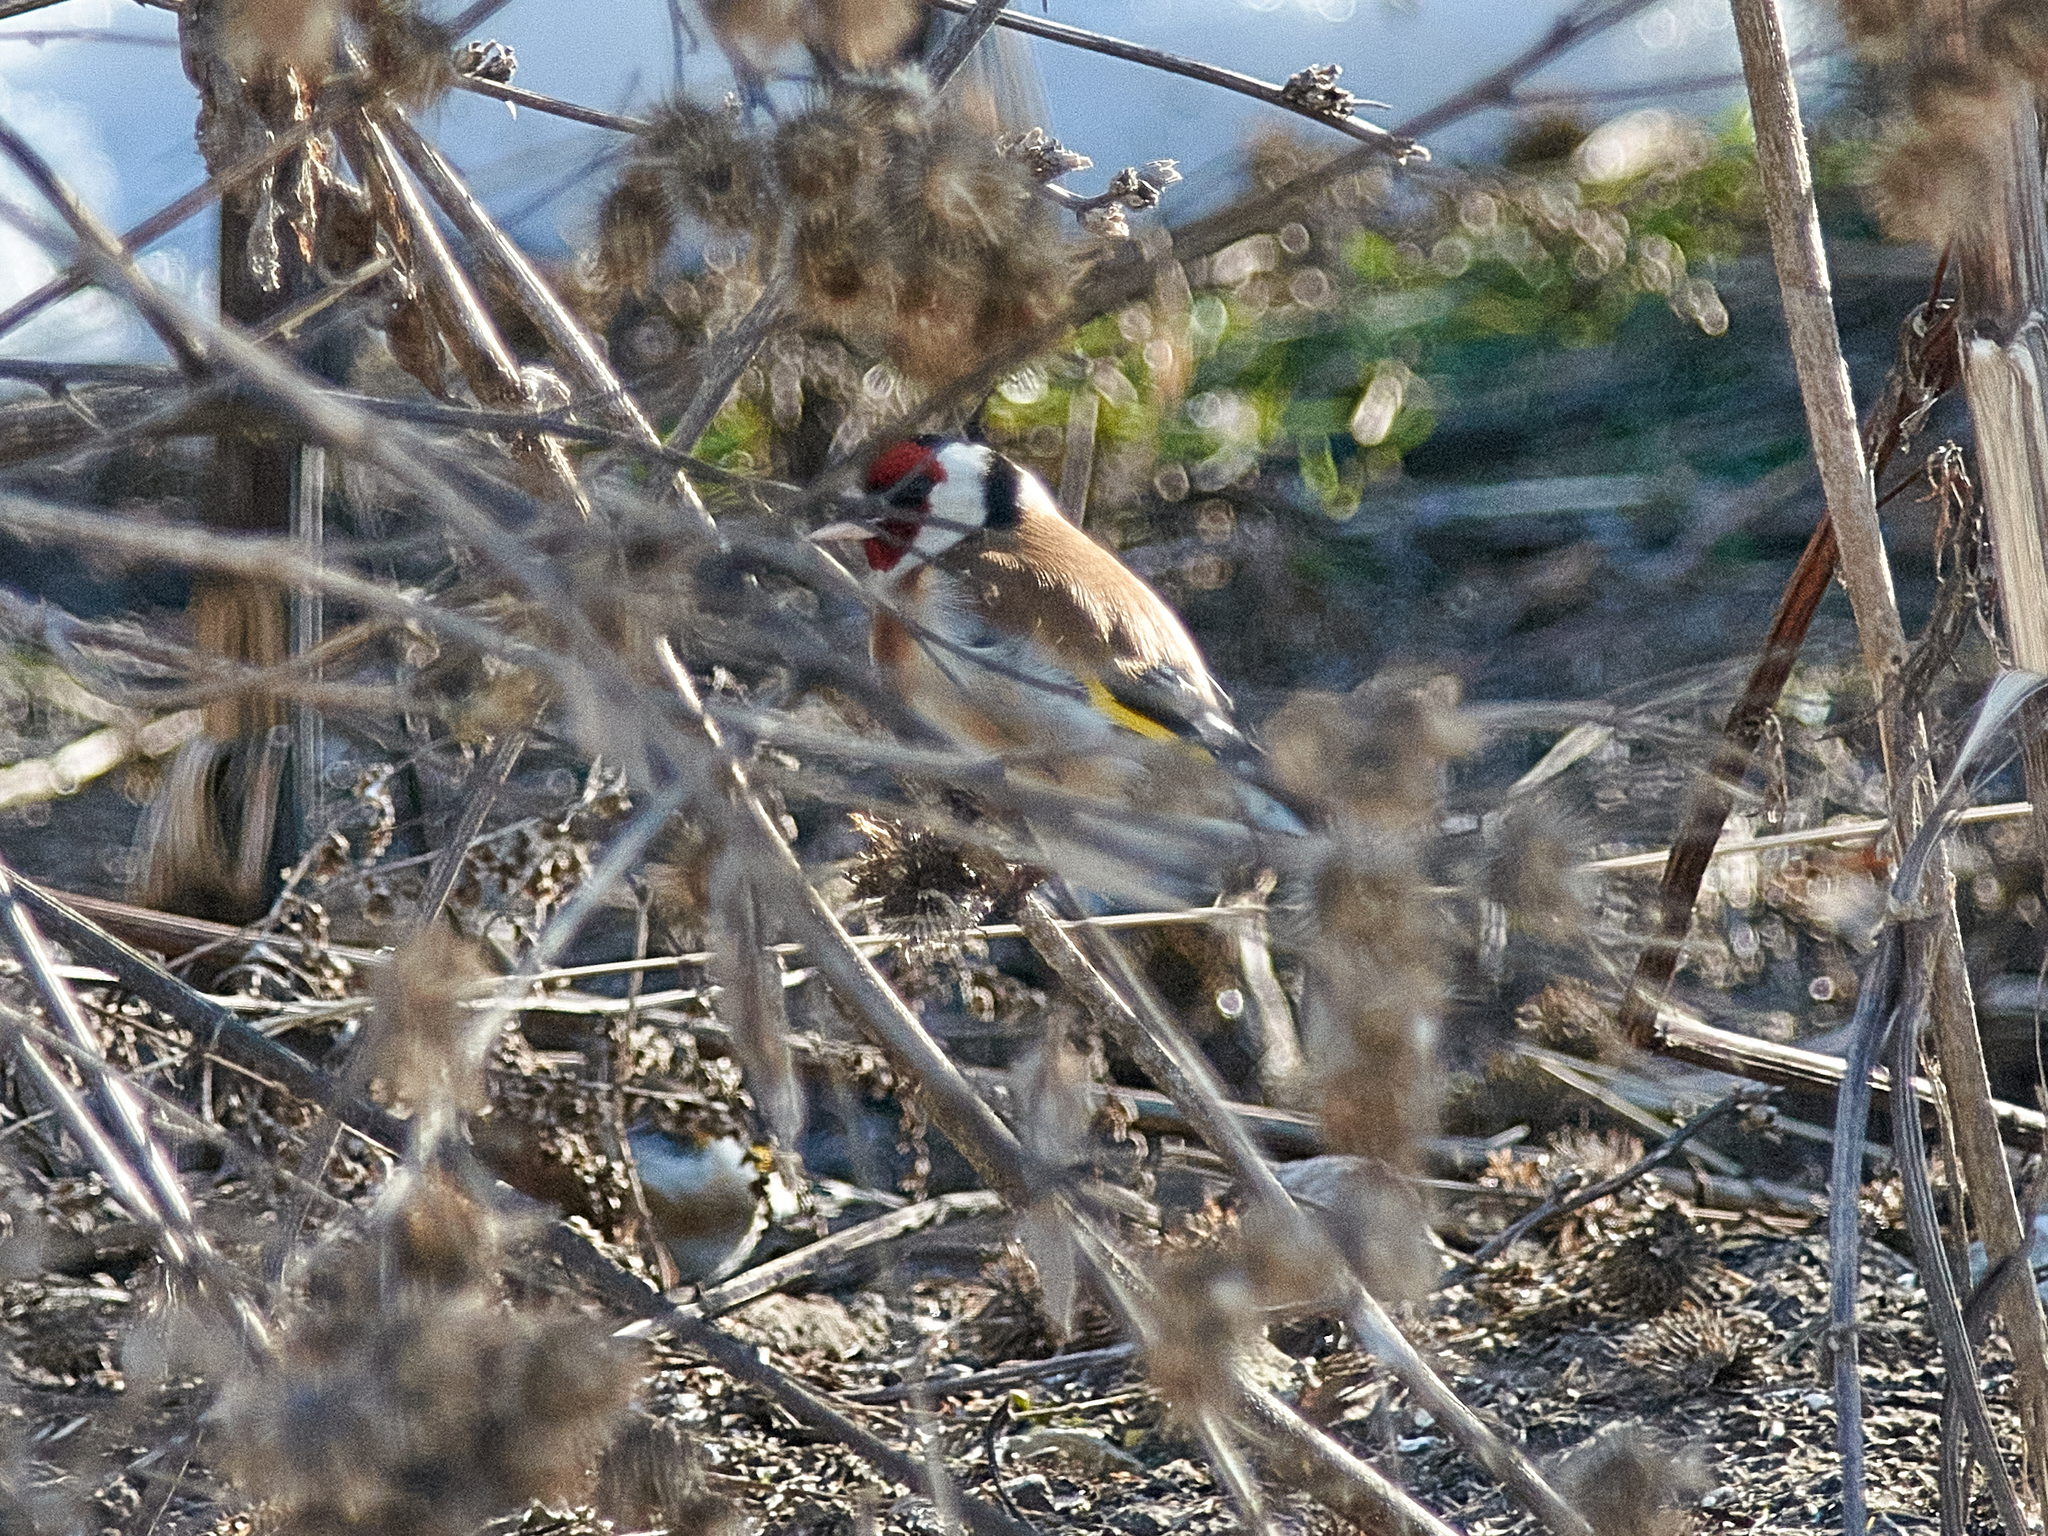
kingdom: Animalia
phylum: Chordata
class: Aves
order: Passeriformes
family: Fringillidae
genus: Carduelis
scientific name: Carduelis carduelis
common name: European goldfinch
